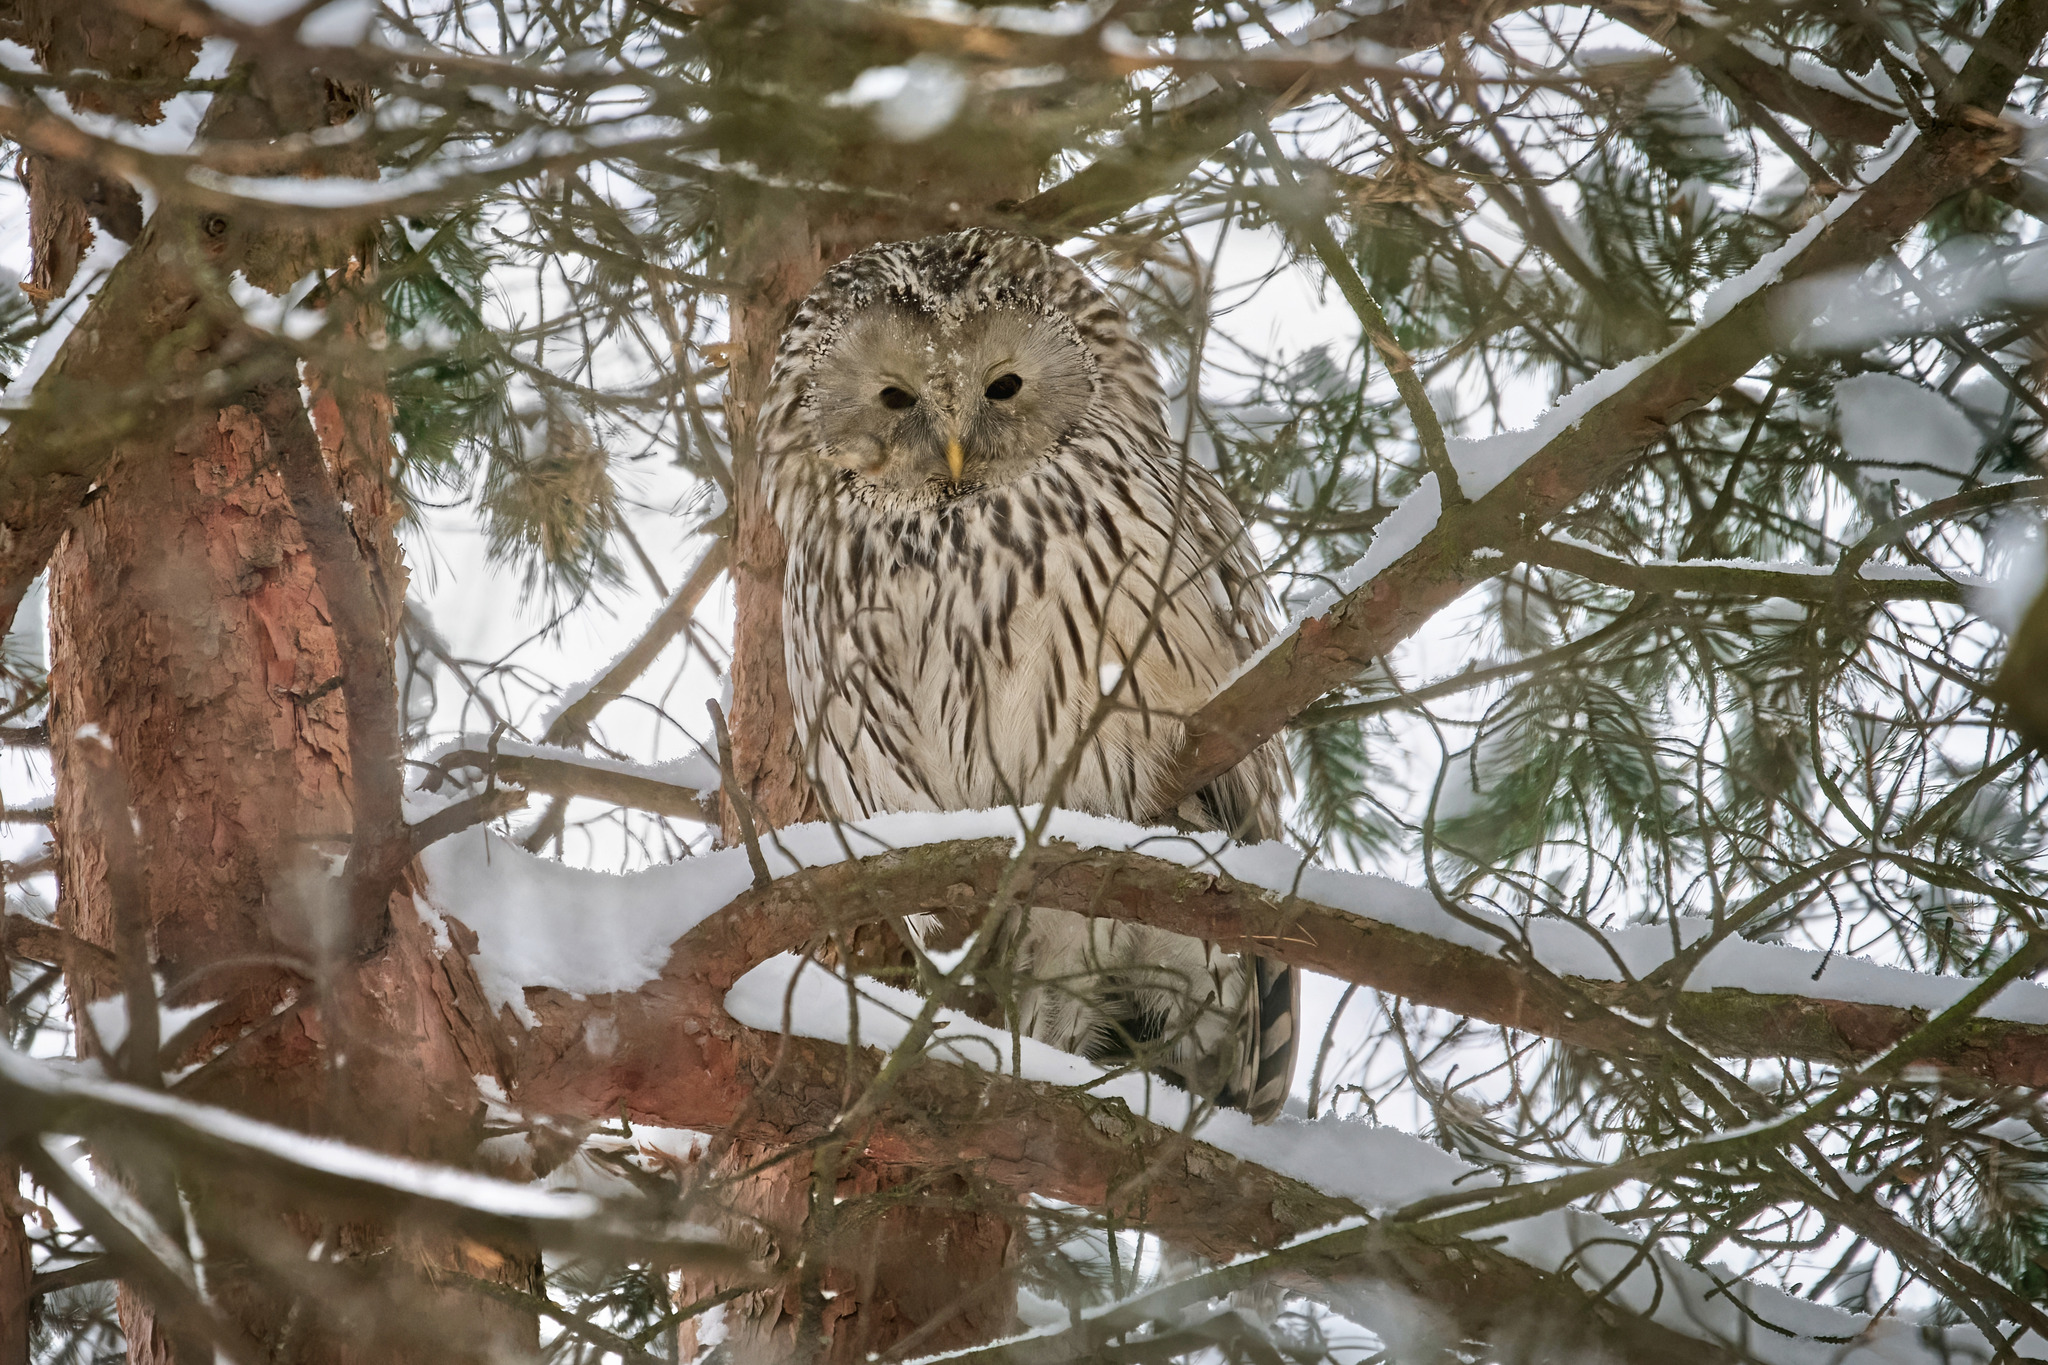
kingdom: Animalia
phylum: Chordata
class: Aves
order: Strigiformes
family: Strigidae
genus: Strix
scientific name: Strix uralensis
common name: Ural owl
